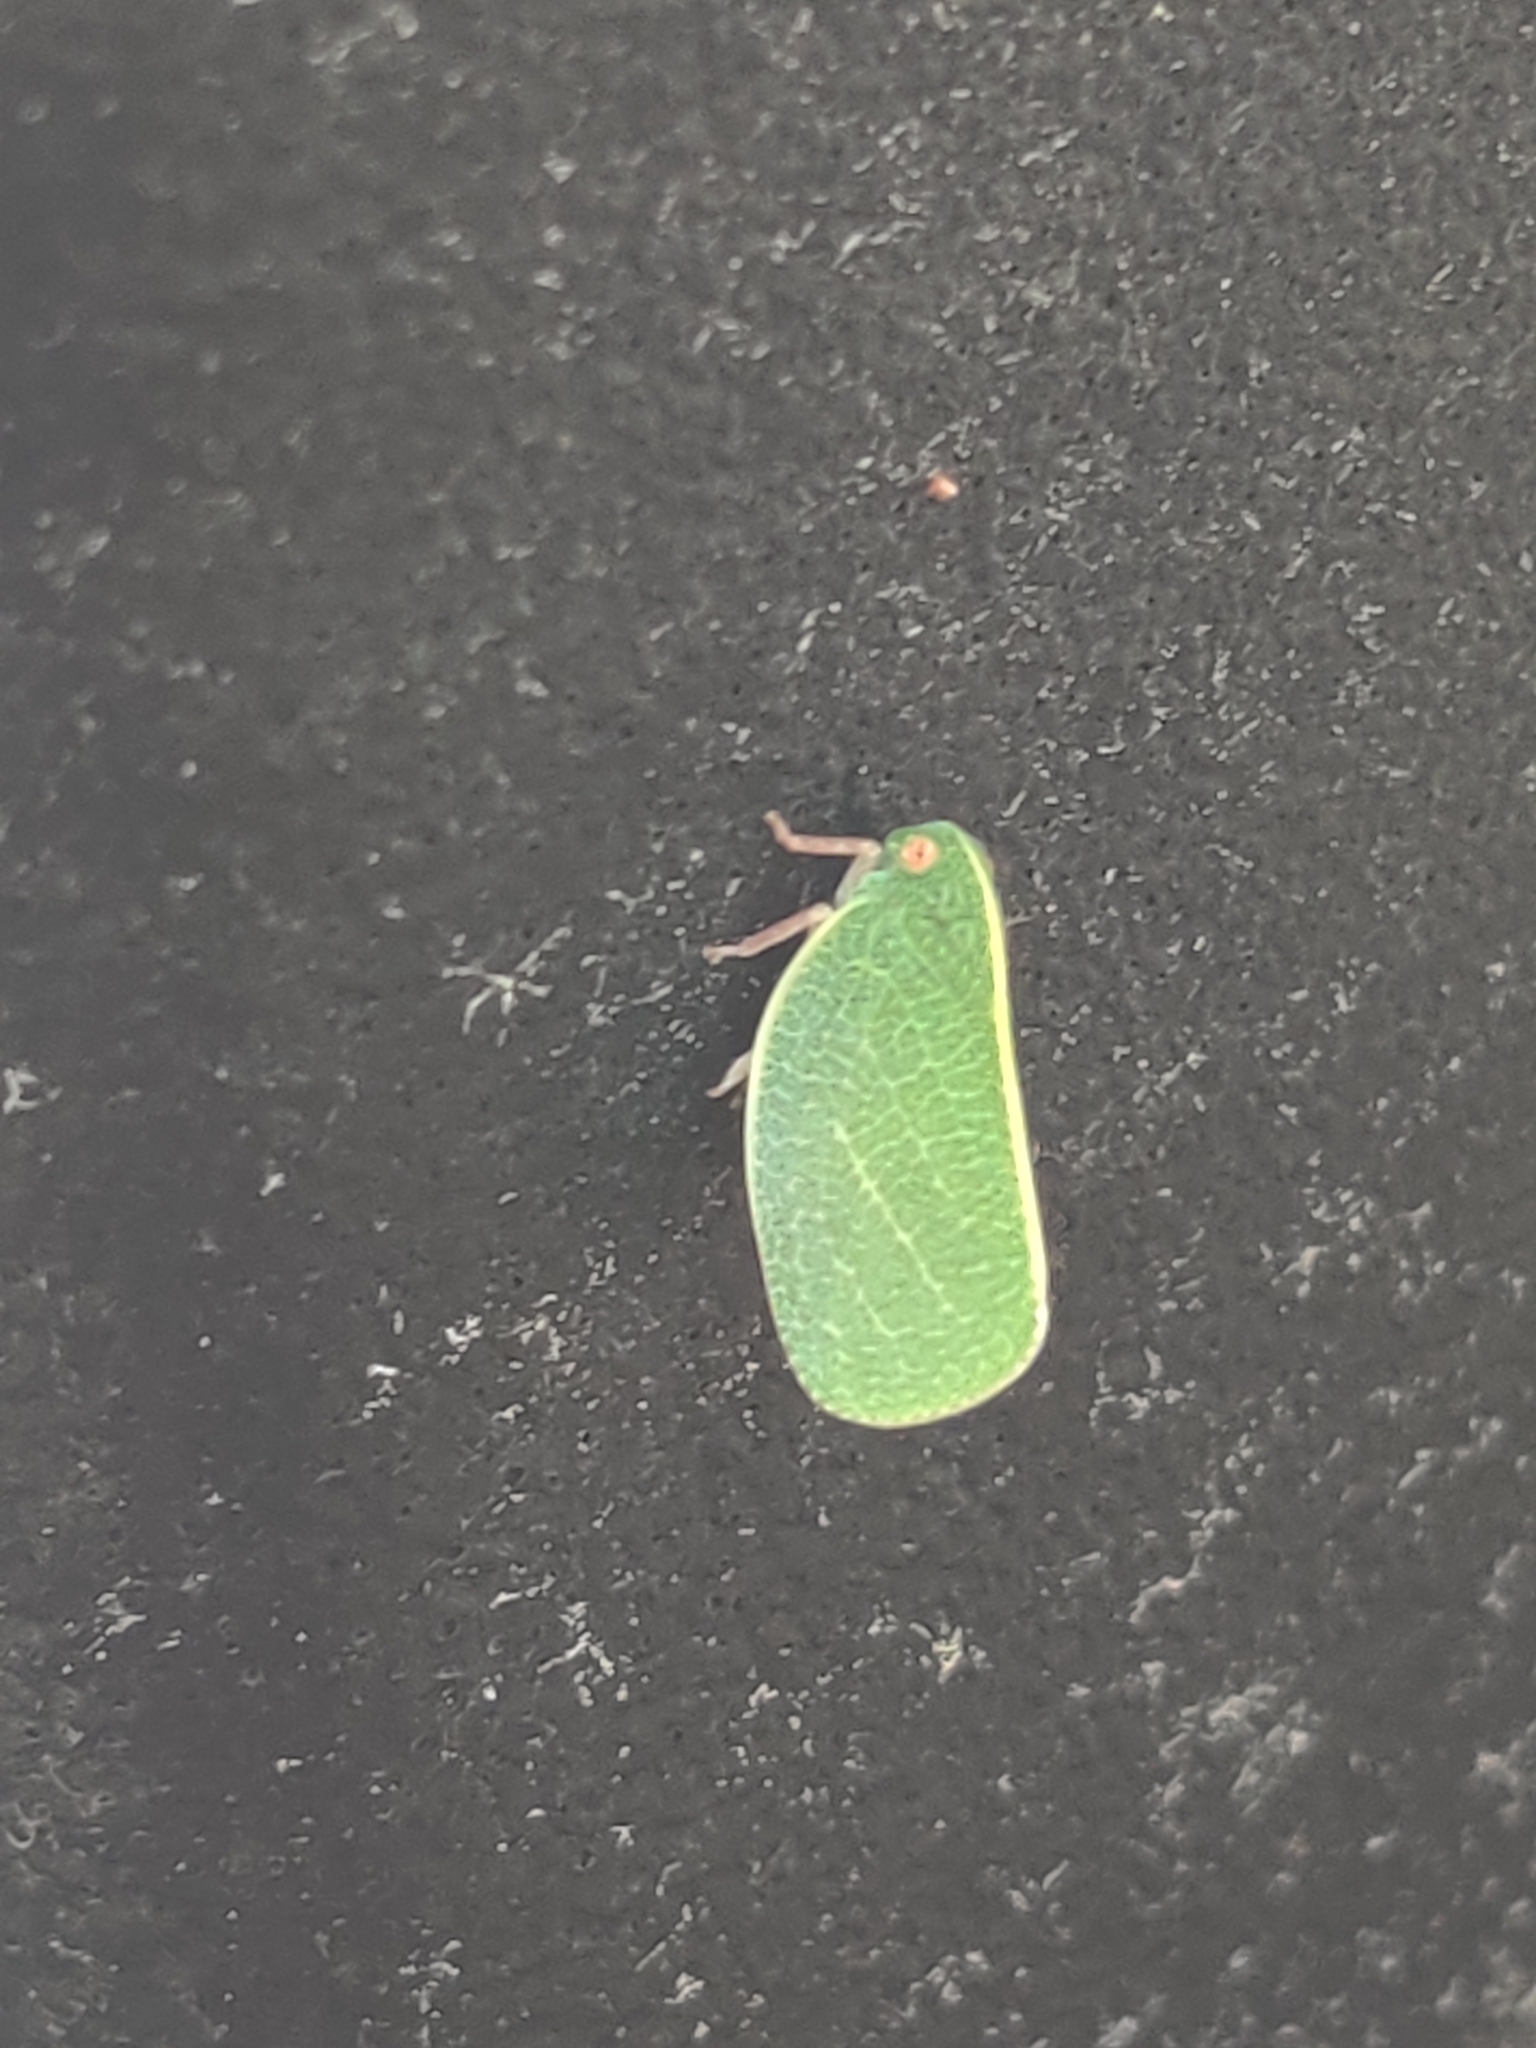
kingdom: Animalia
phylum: Arthropoda
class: Insecta
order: Hemiptera
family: Acanaloniidae
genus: Acanalonia
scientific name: Acanalonia servillei
